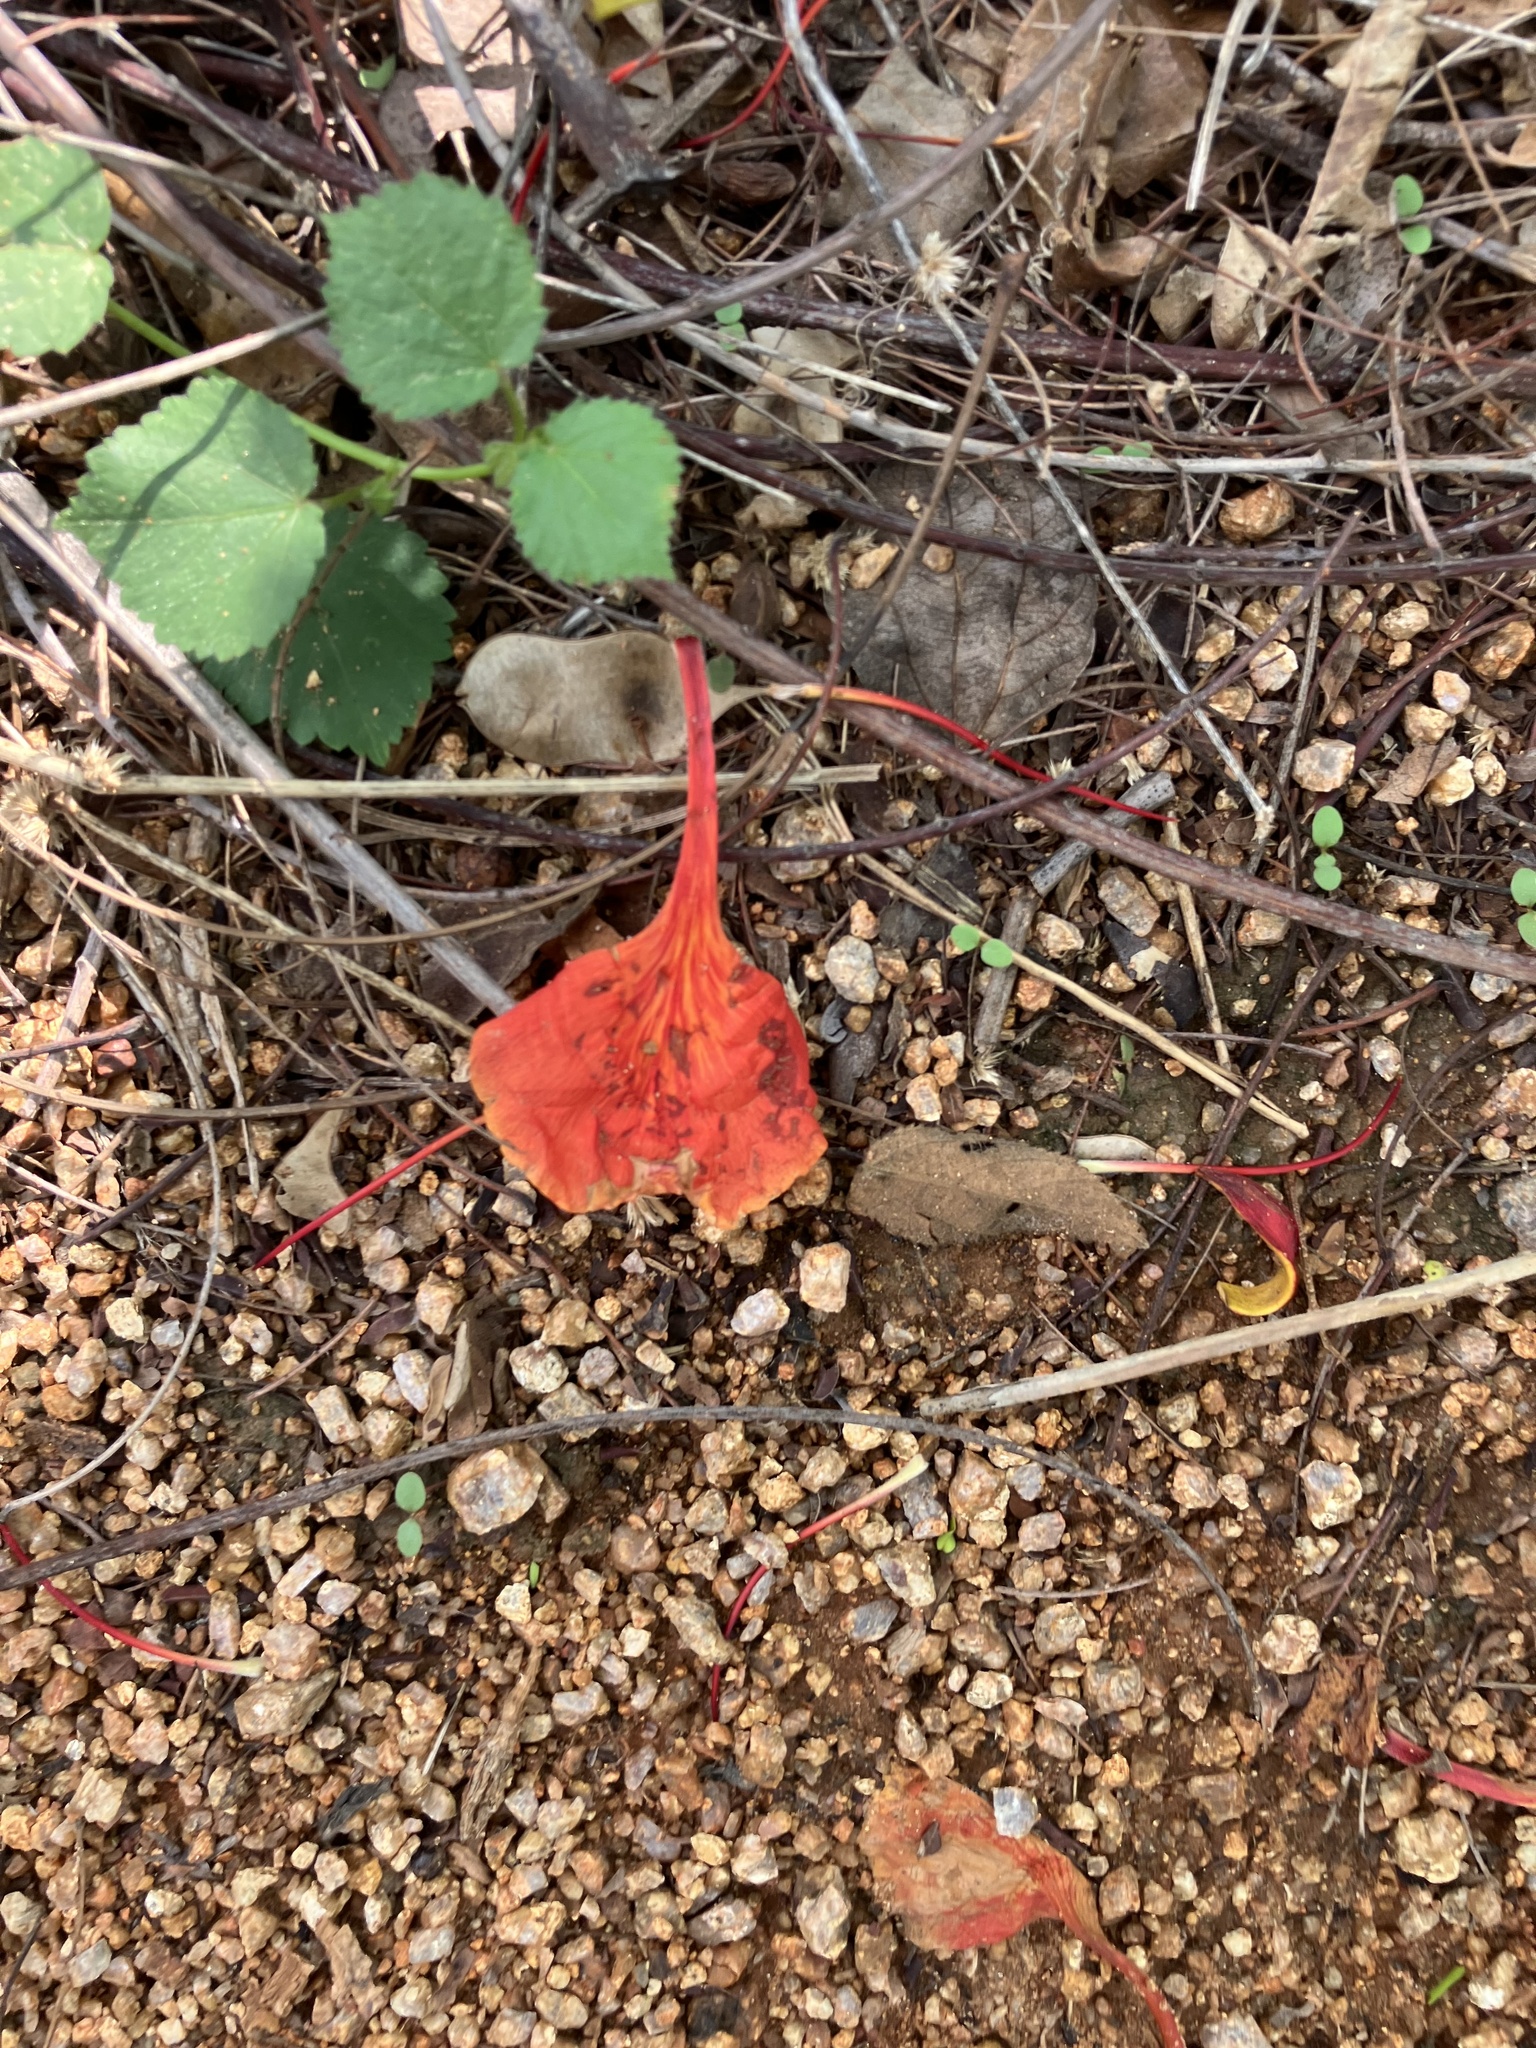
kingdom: Plantae
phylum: Tracheophyta
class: Magnoliopsida
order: Fabales
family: Fabaceae
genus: Delonix
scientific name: Delonix regia
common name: Royal poinciana
